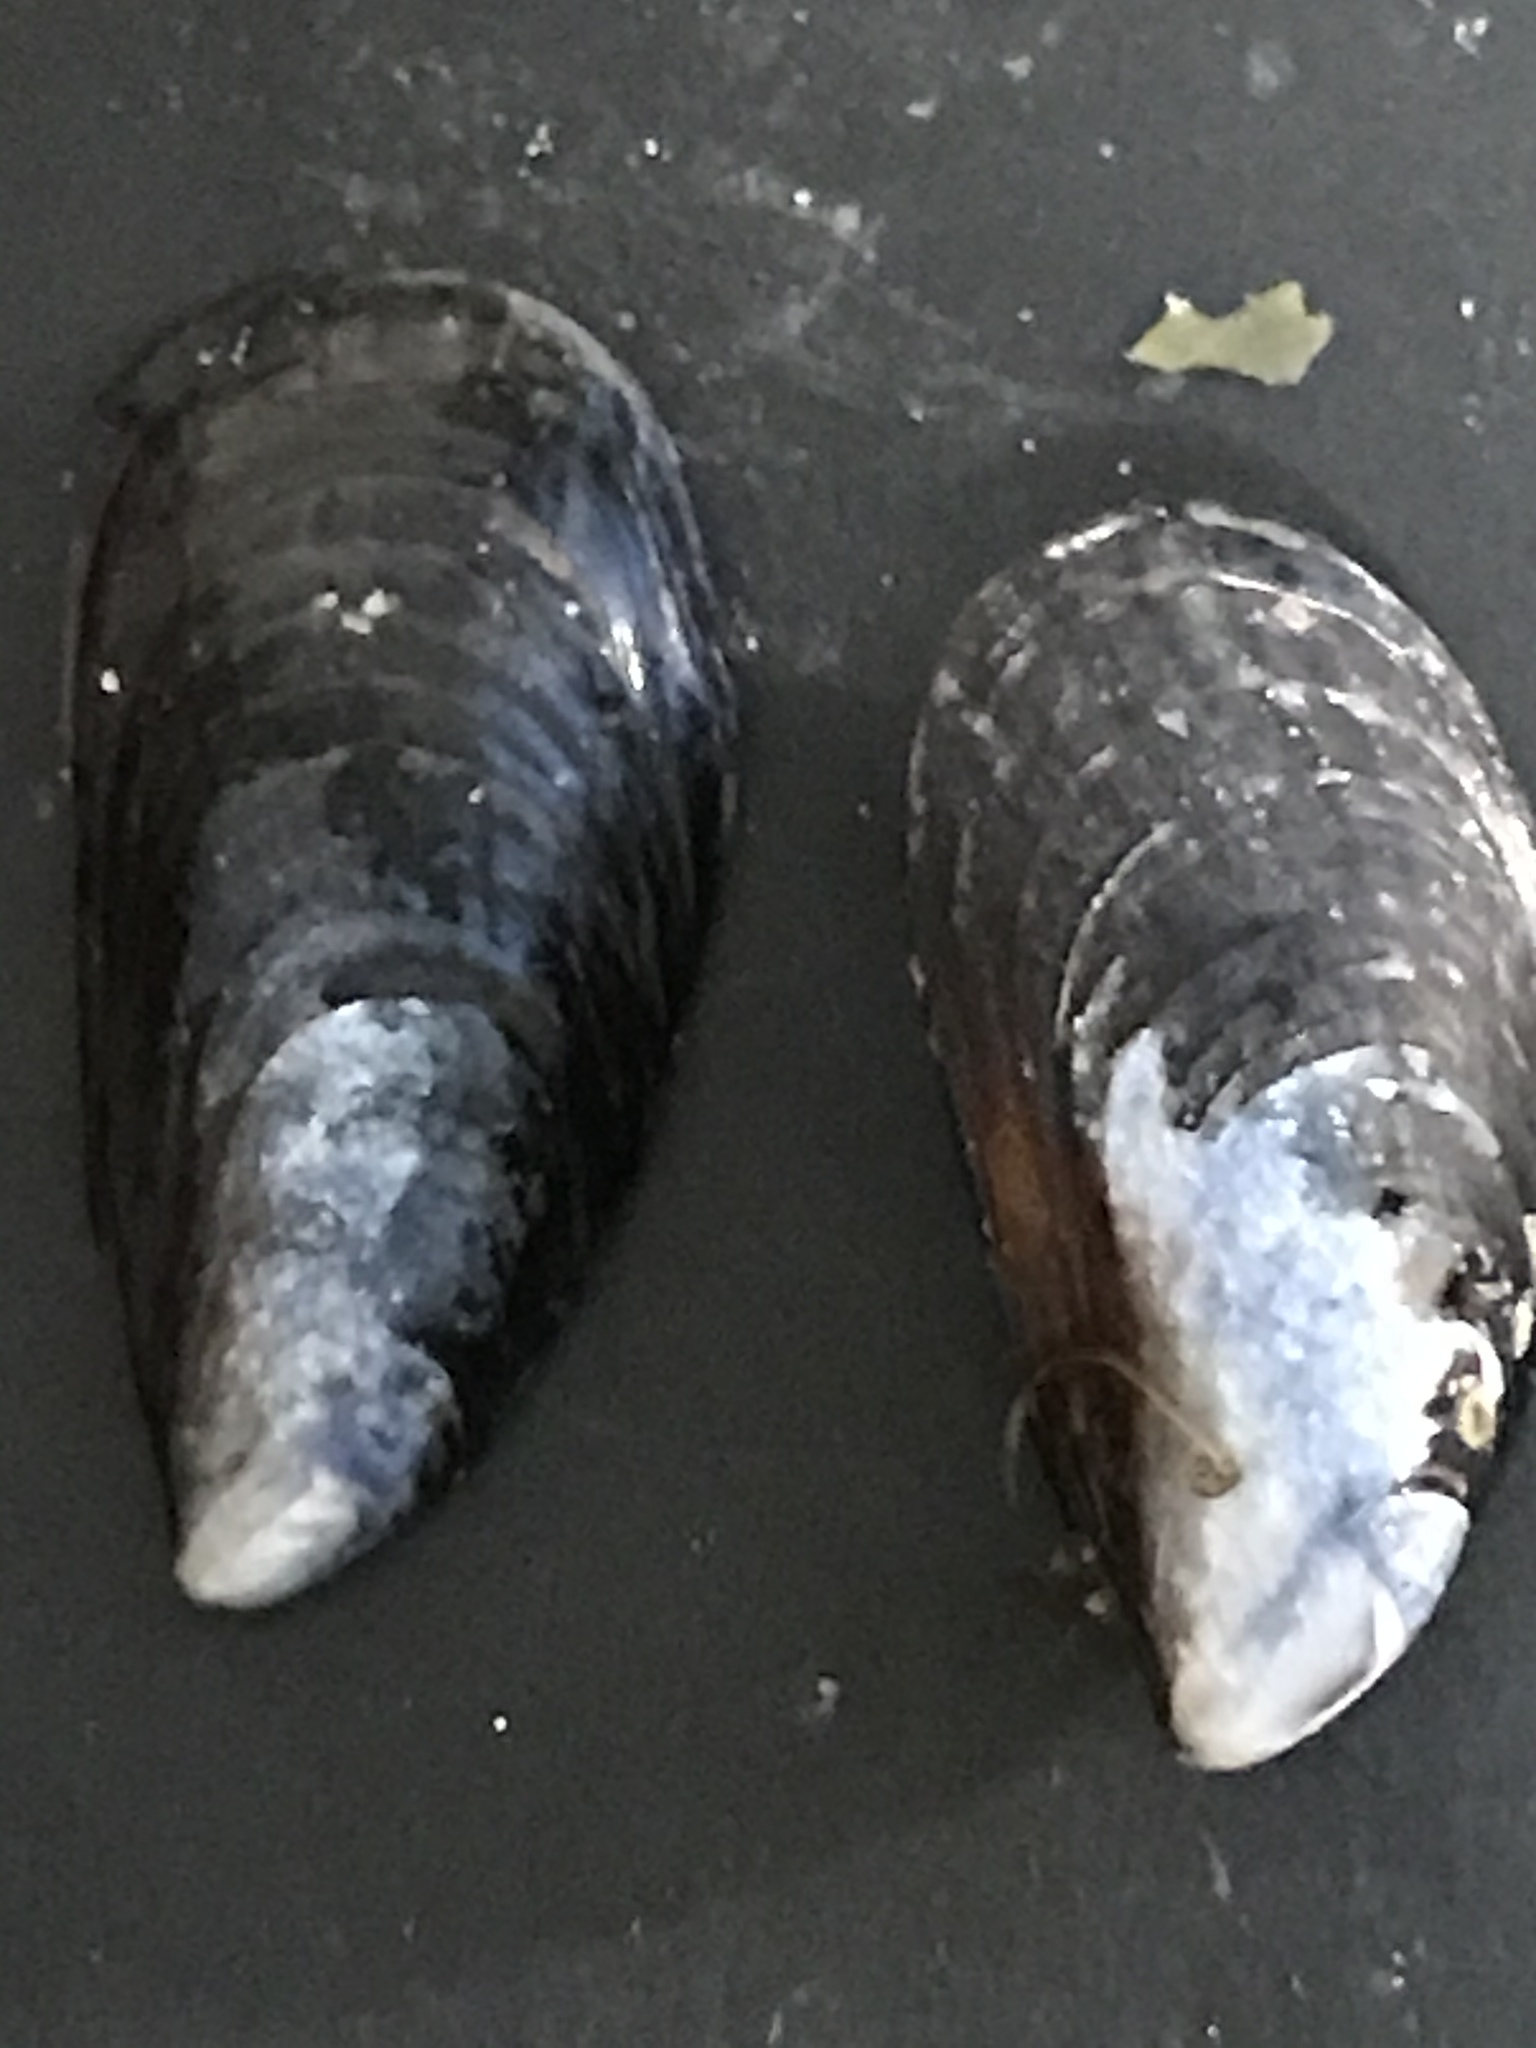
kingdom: Animalia
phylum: Mollusca
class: Bivalvia
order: Mytilida
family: Mytilidae
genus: Mytilus
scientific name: Mytilus californianus
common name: California mussel
